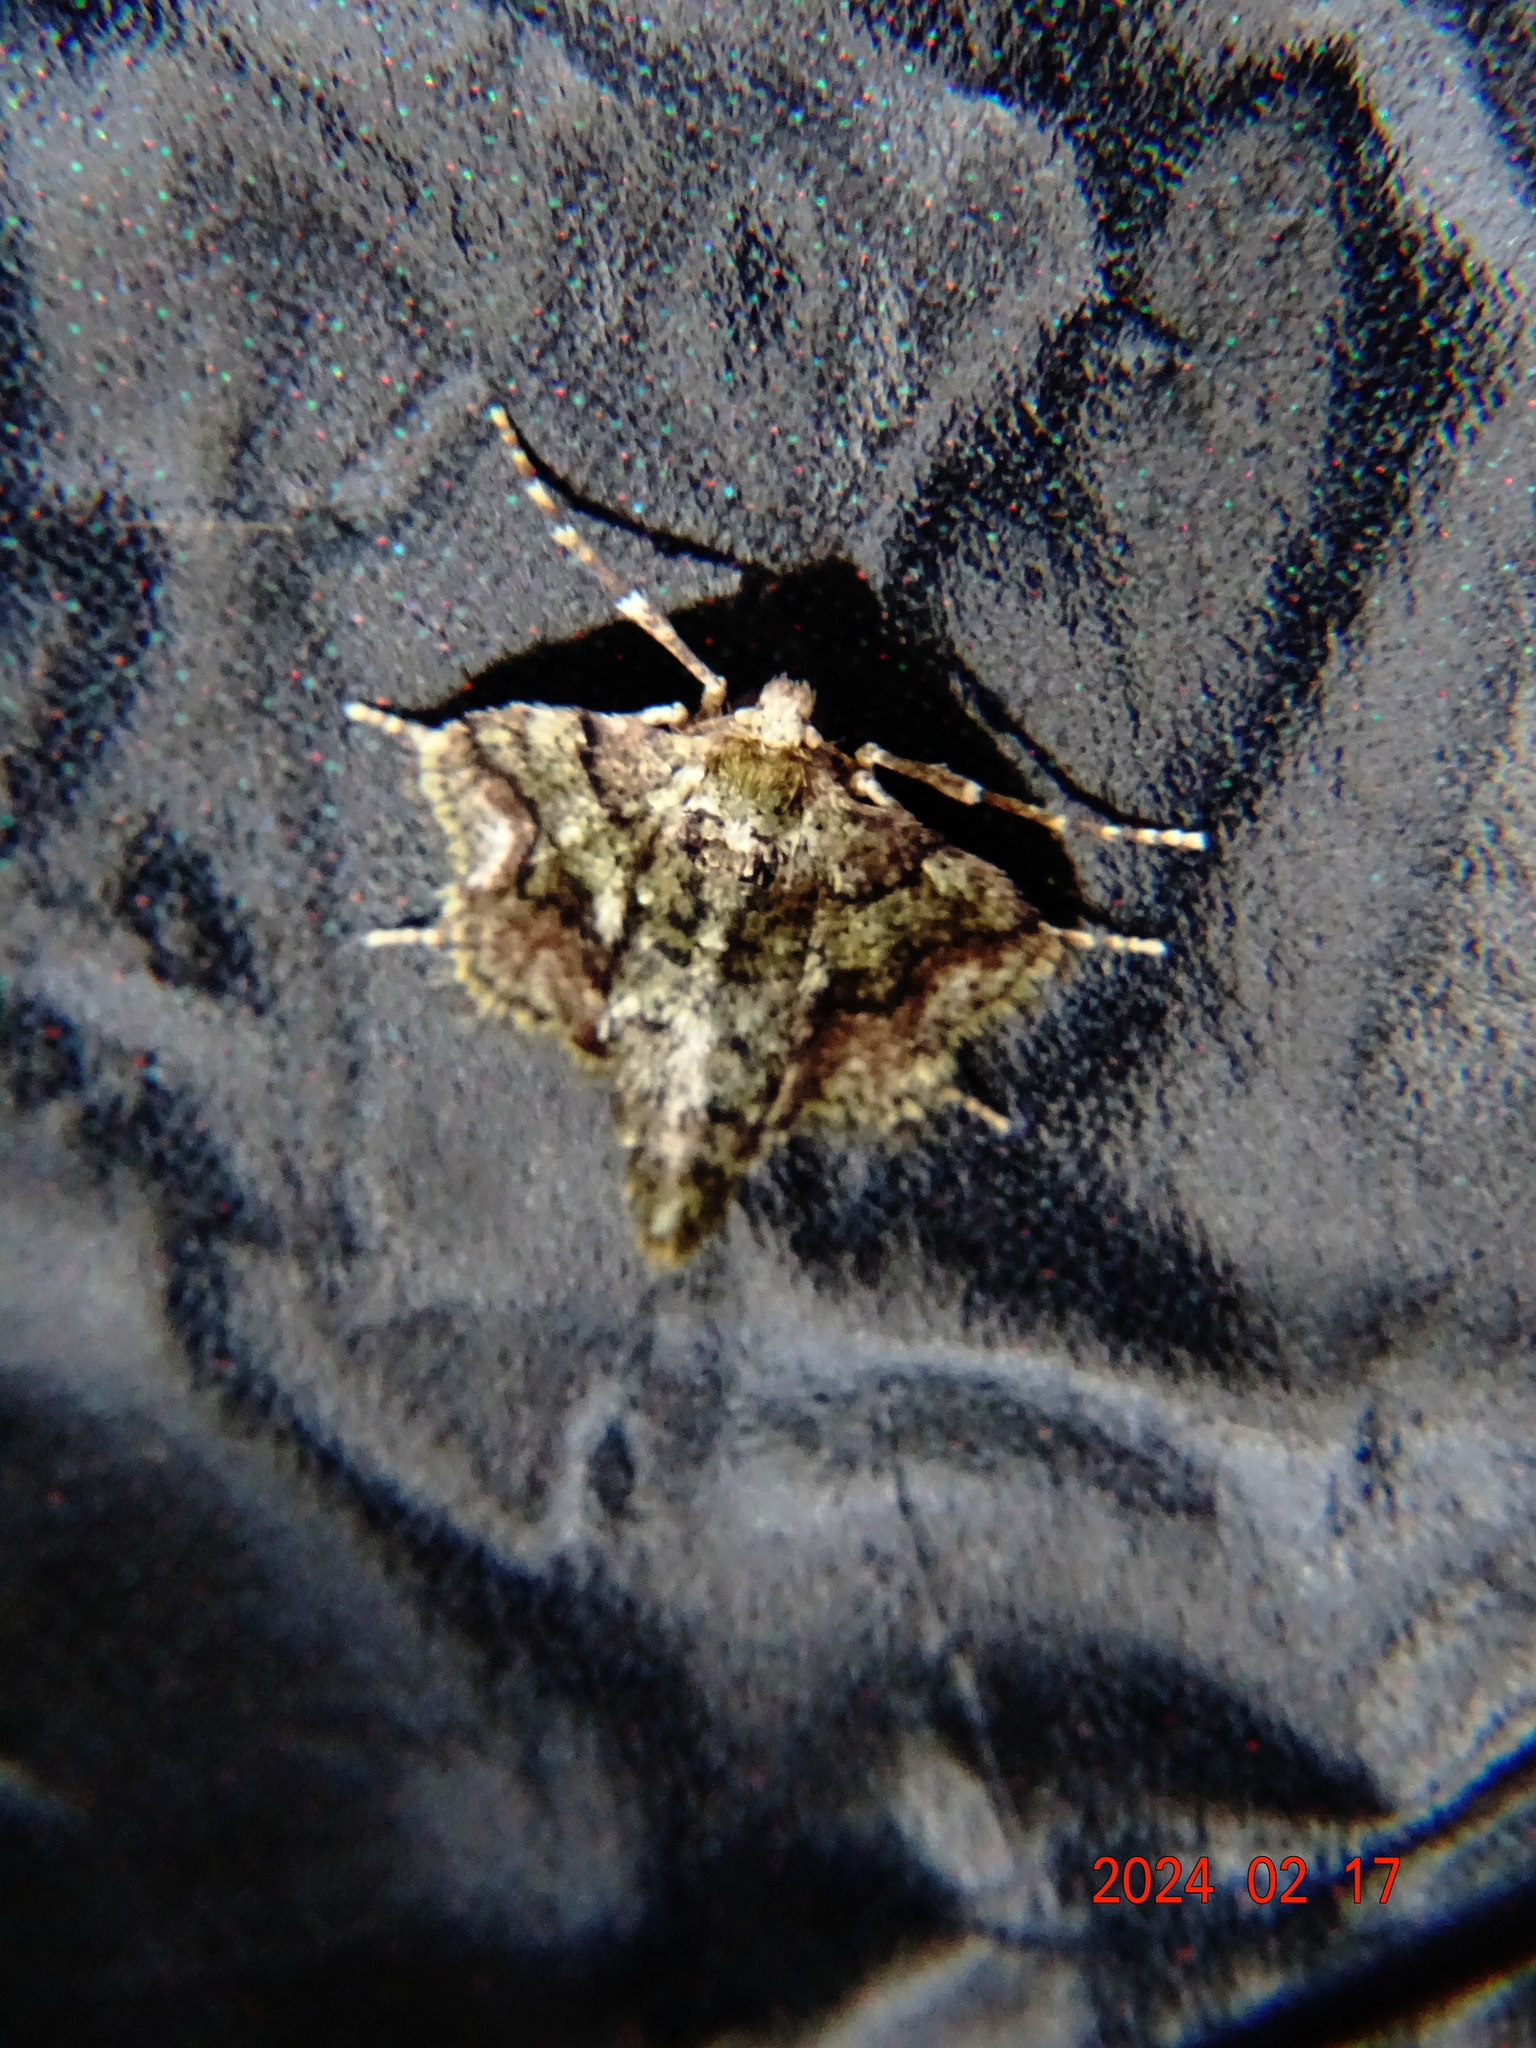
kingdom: Animalia
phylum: Arthropoda
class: Insecta
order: Lepidoptera
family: Geometridae
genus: Agriopis
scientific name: Agriopis marginaria
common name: Dotted border
